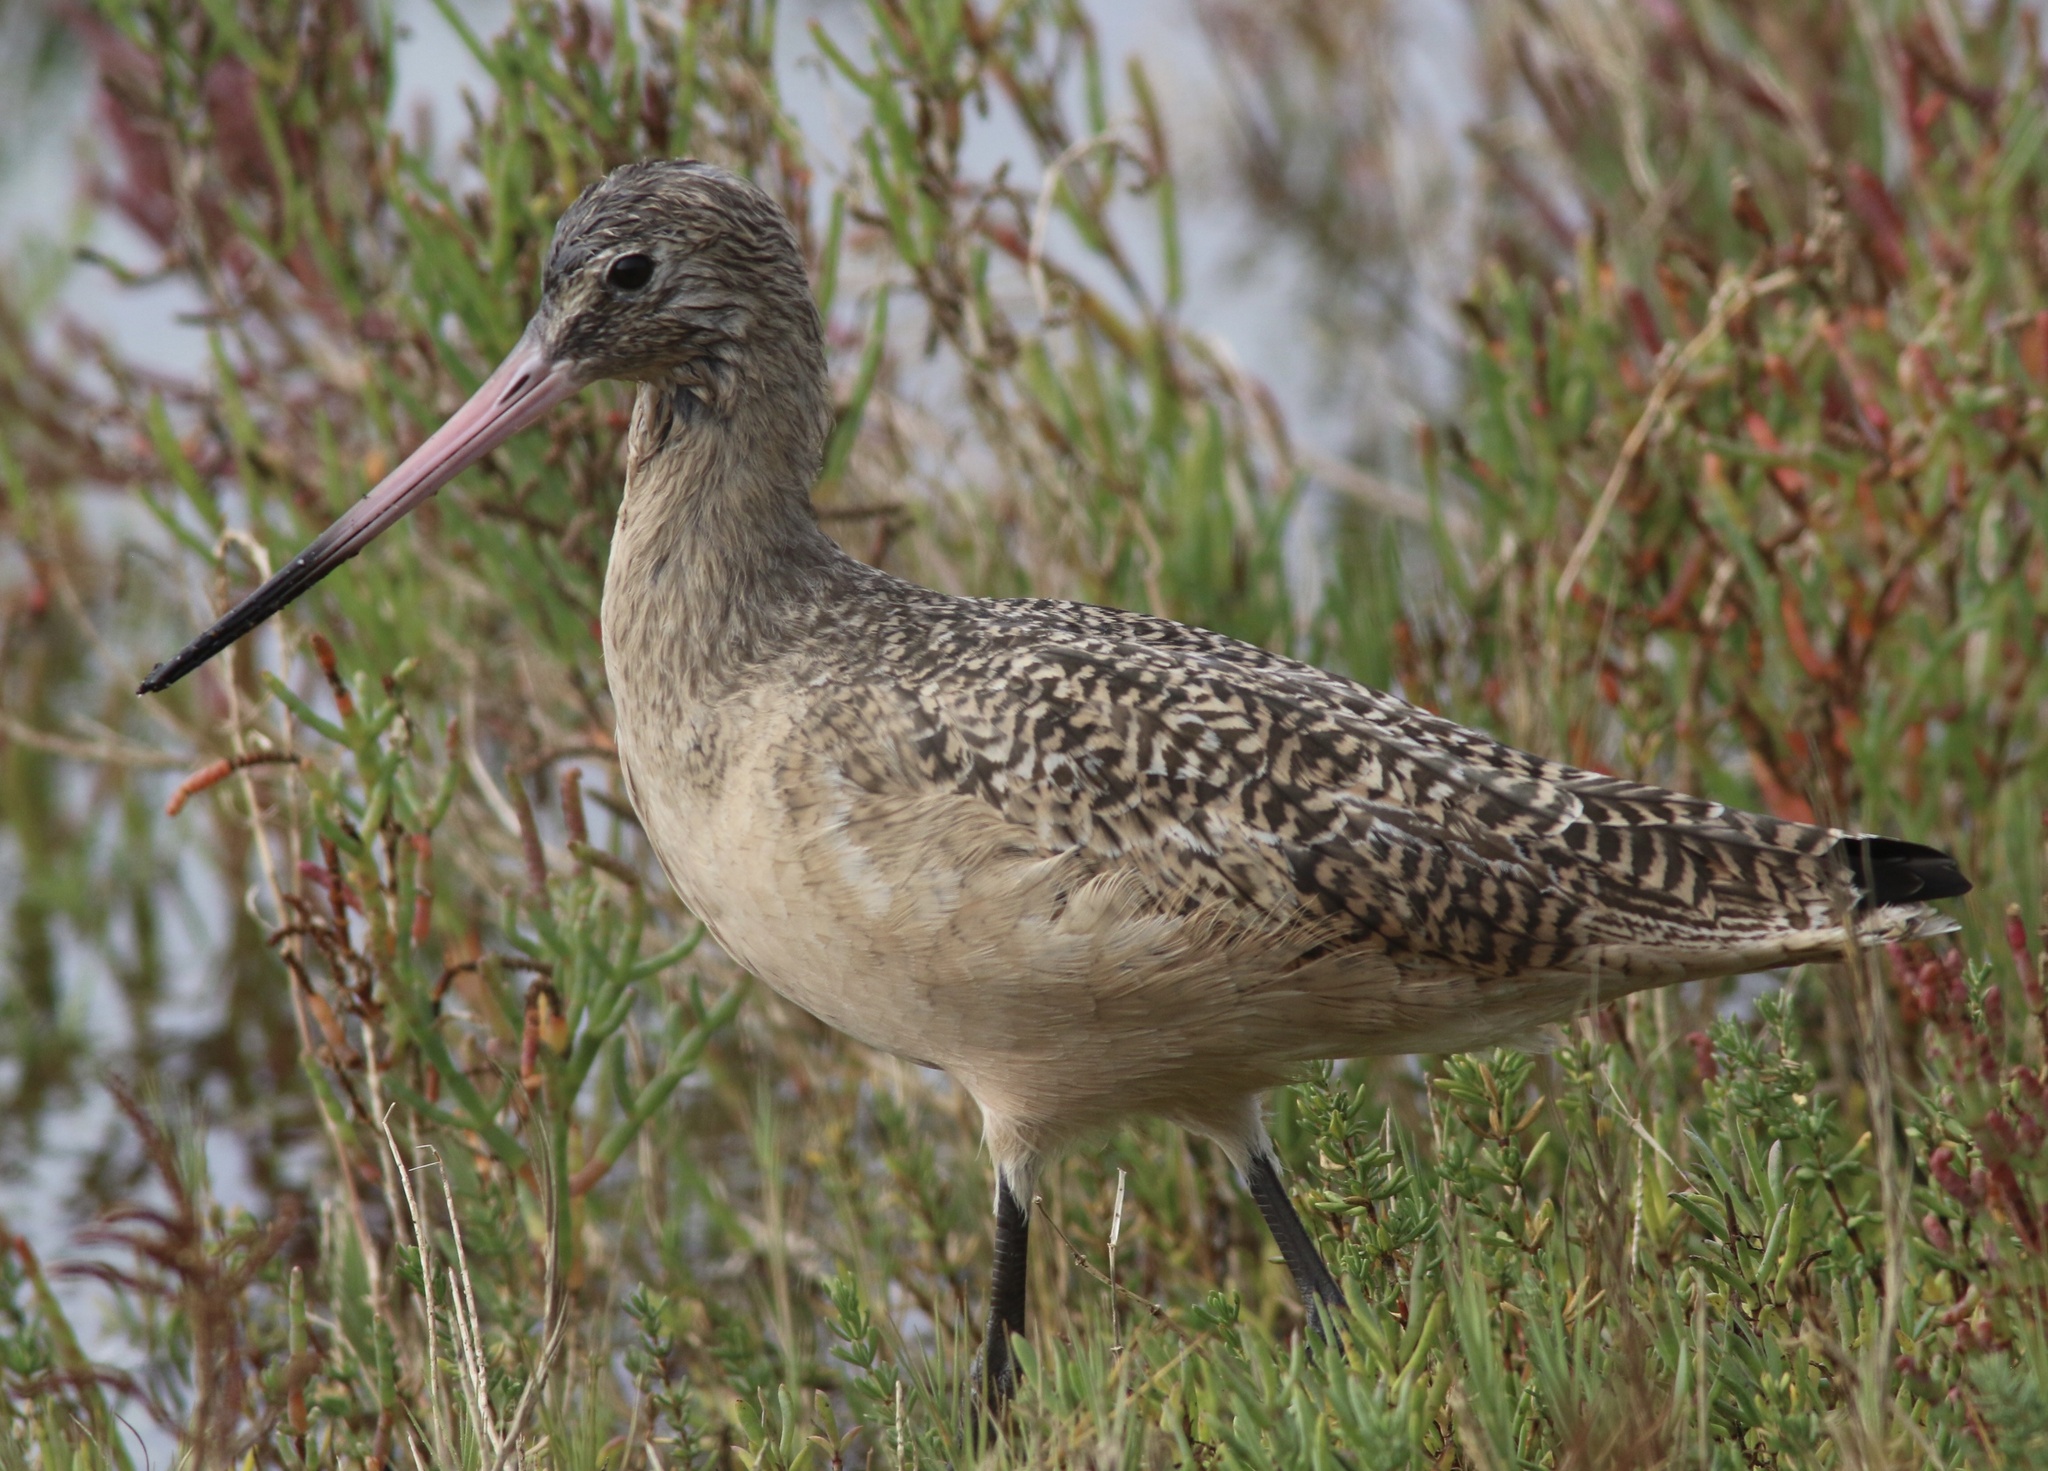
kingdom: Animalia
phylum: Chordata
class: Aves
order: Charadriiformes
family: Scolopacidae
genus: Limosa
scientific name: Limosa fedoa
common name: Marbled godwit
